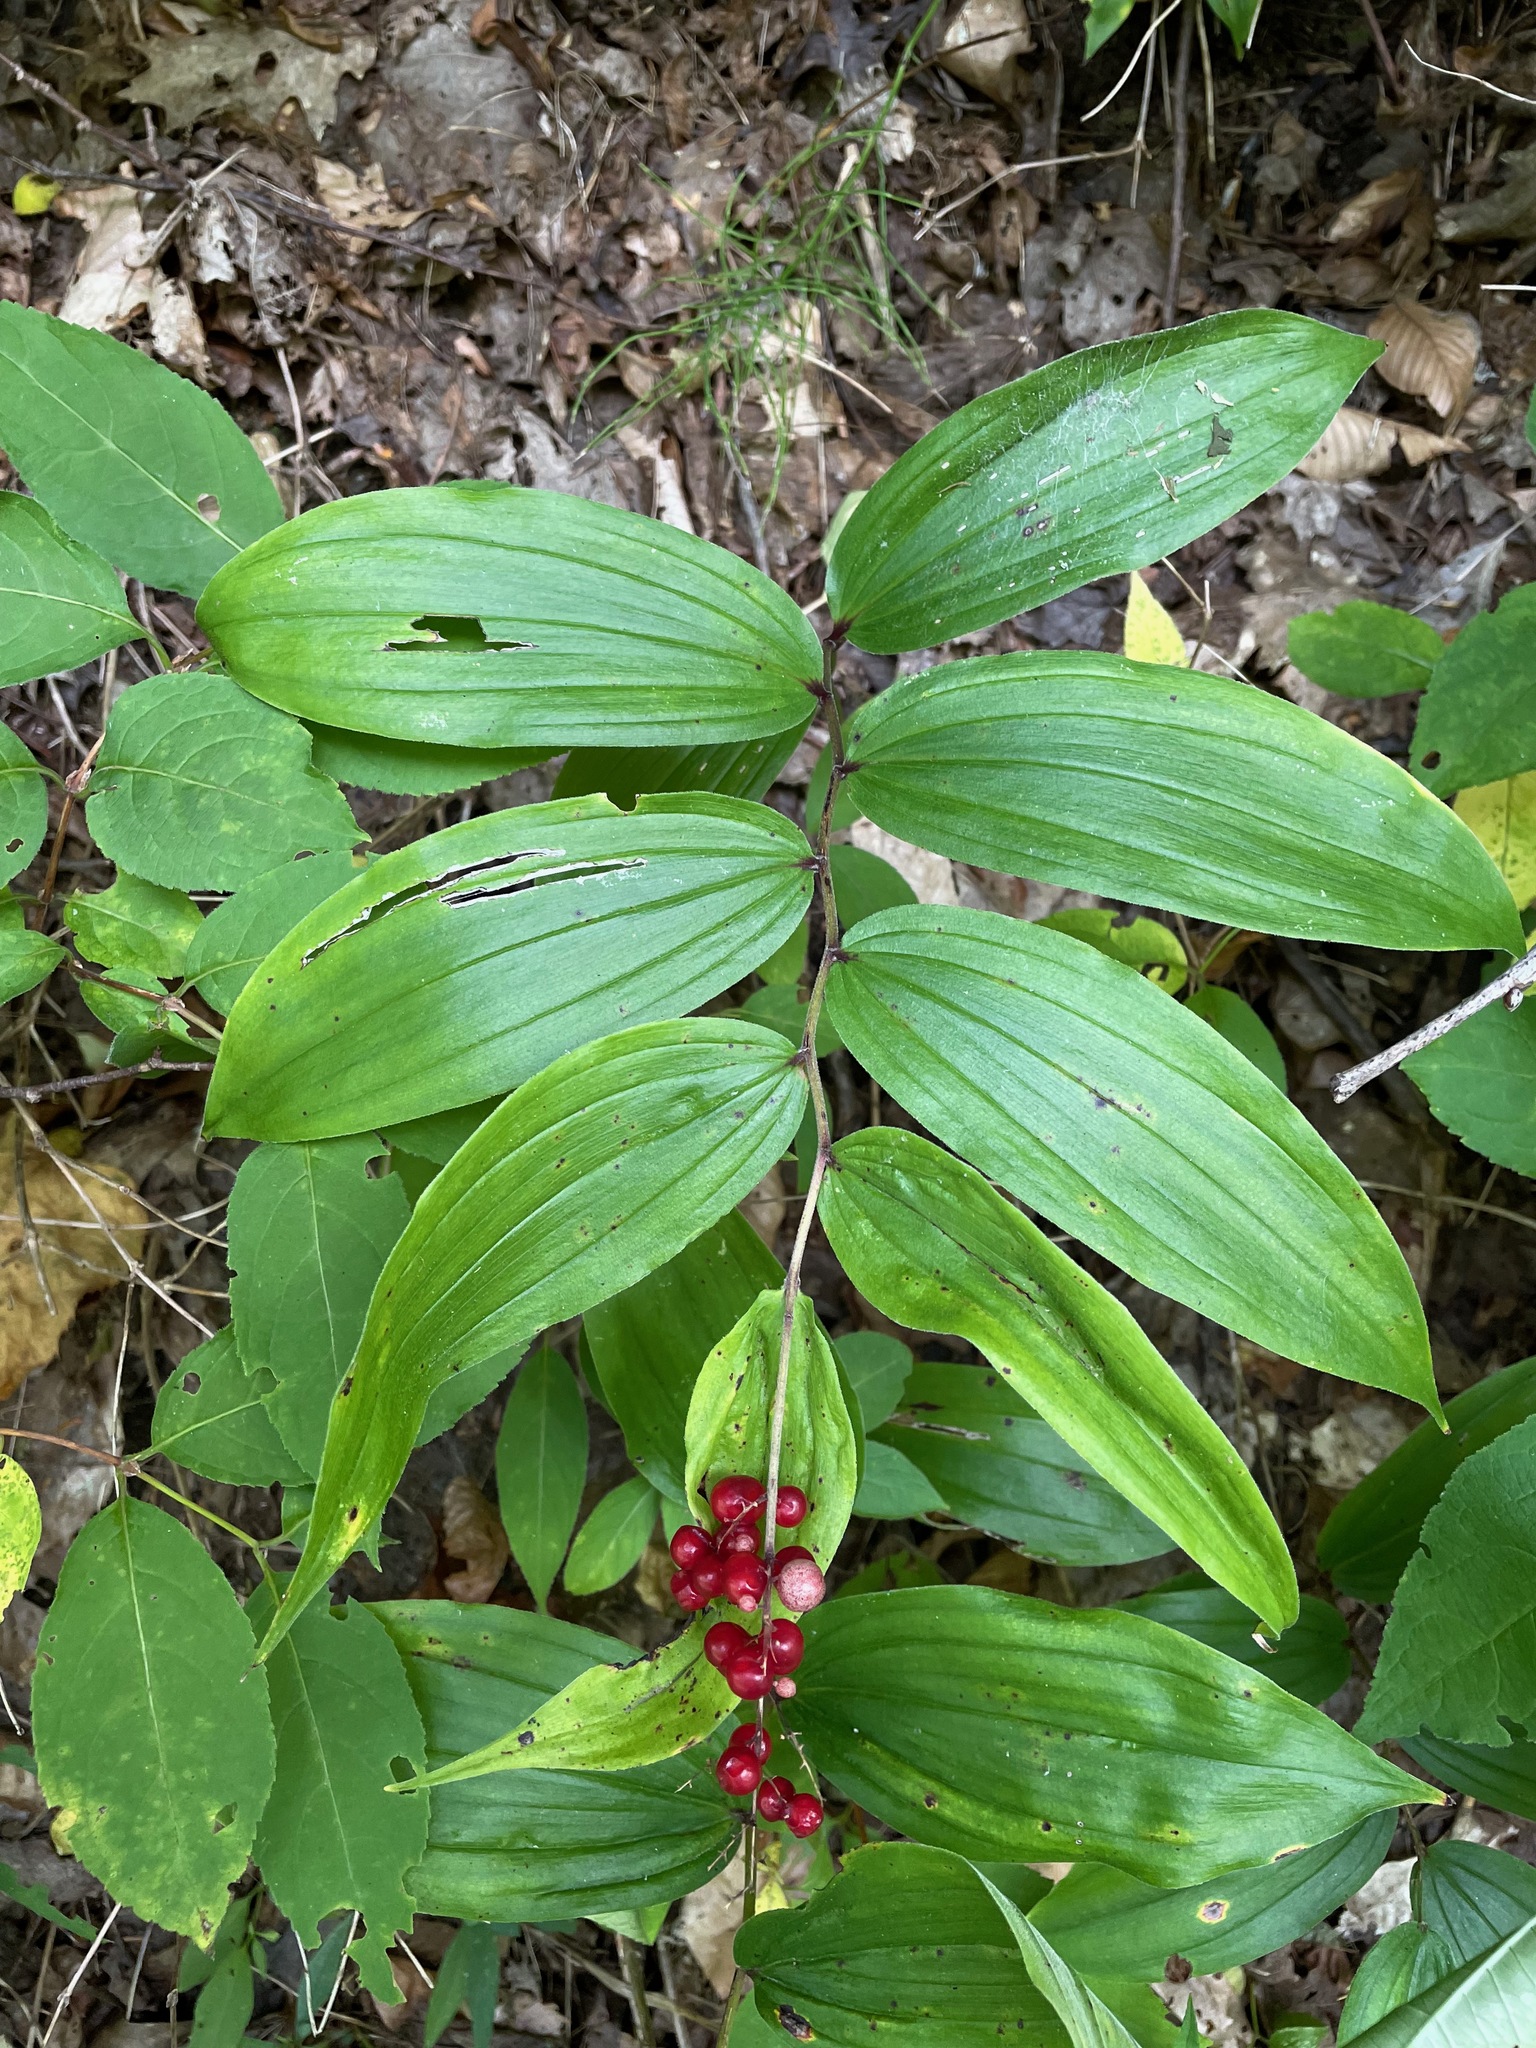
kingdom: Plantae
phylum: Tracheophyta
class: Liliopsida
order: Asparagales
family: Asparagaceae
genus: Maianthemum
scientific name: Maianthemum racemosum
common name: False spikenard
